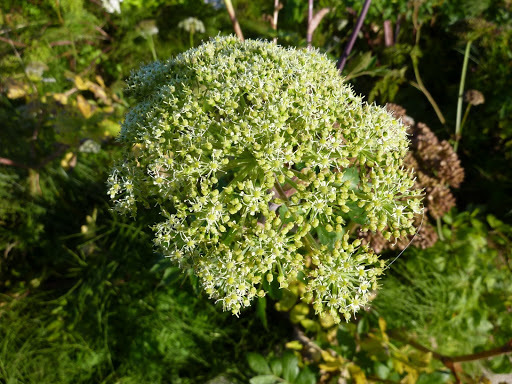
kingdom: Plantae
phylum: Tracheophyta
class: Magnoliopsida
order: Apiales
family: Apiaceae
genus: Angelica
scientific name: Angelica lucida
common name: Seabeach angelica
